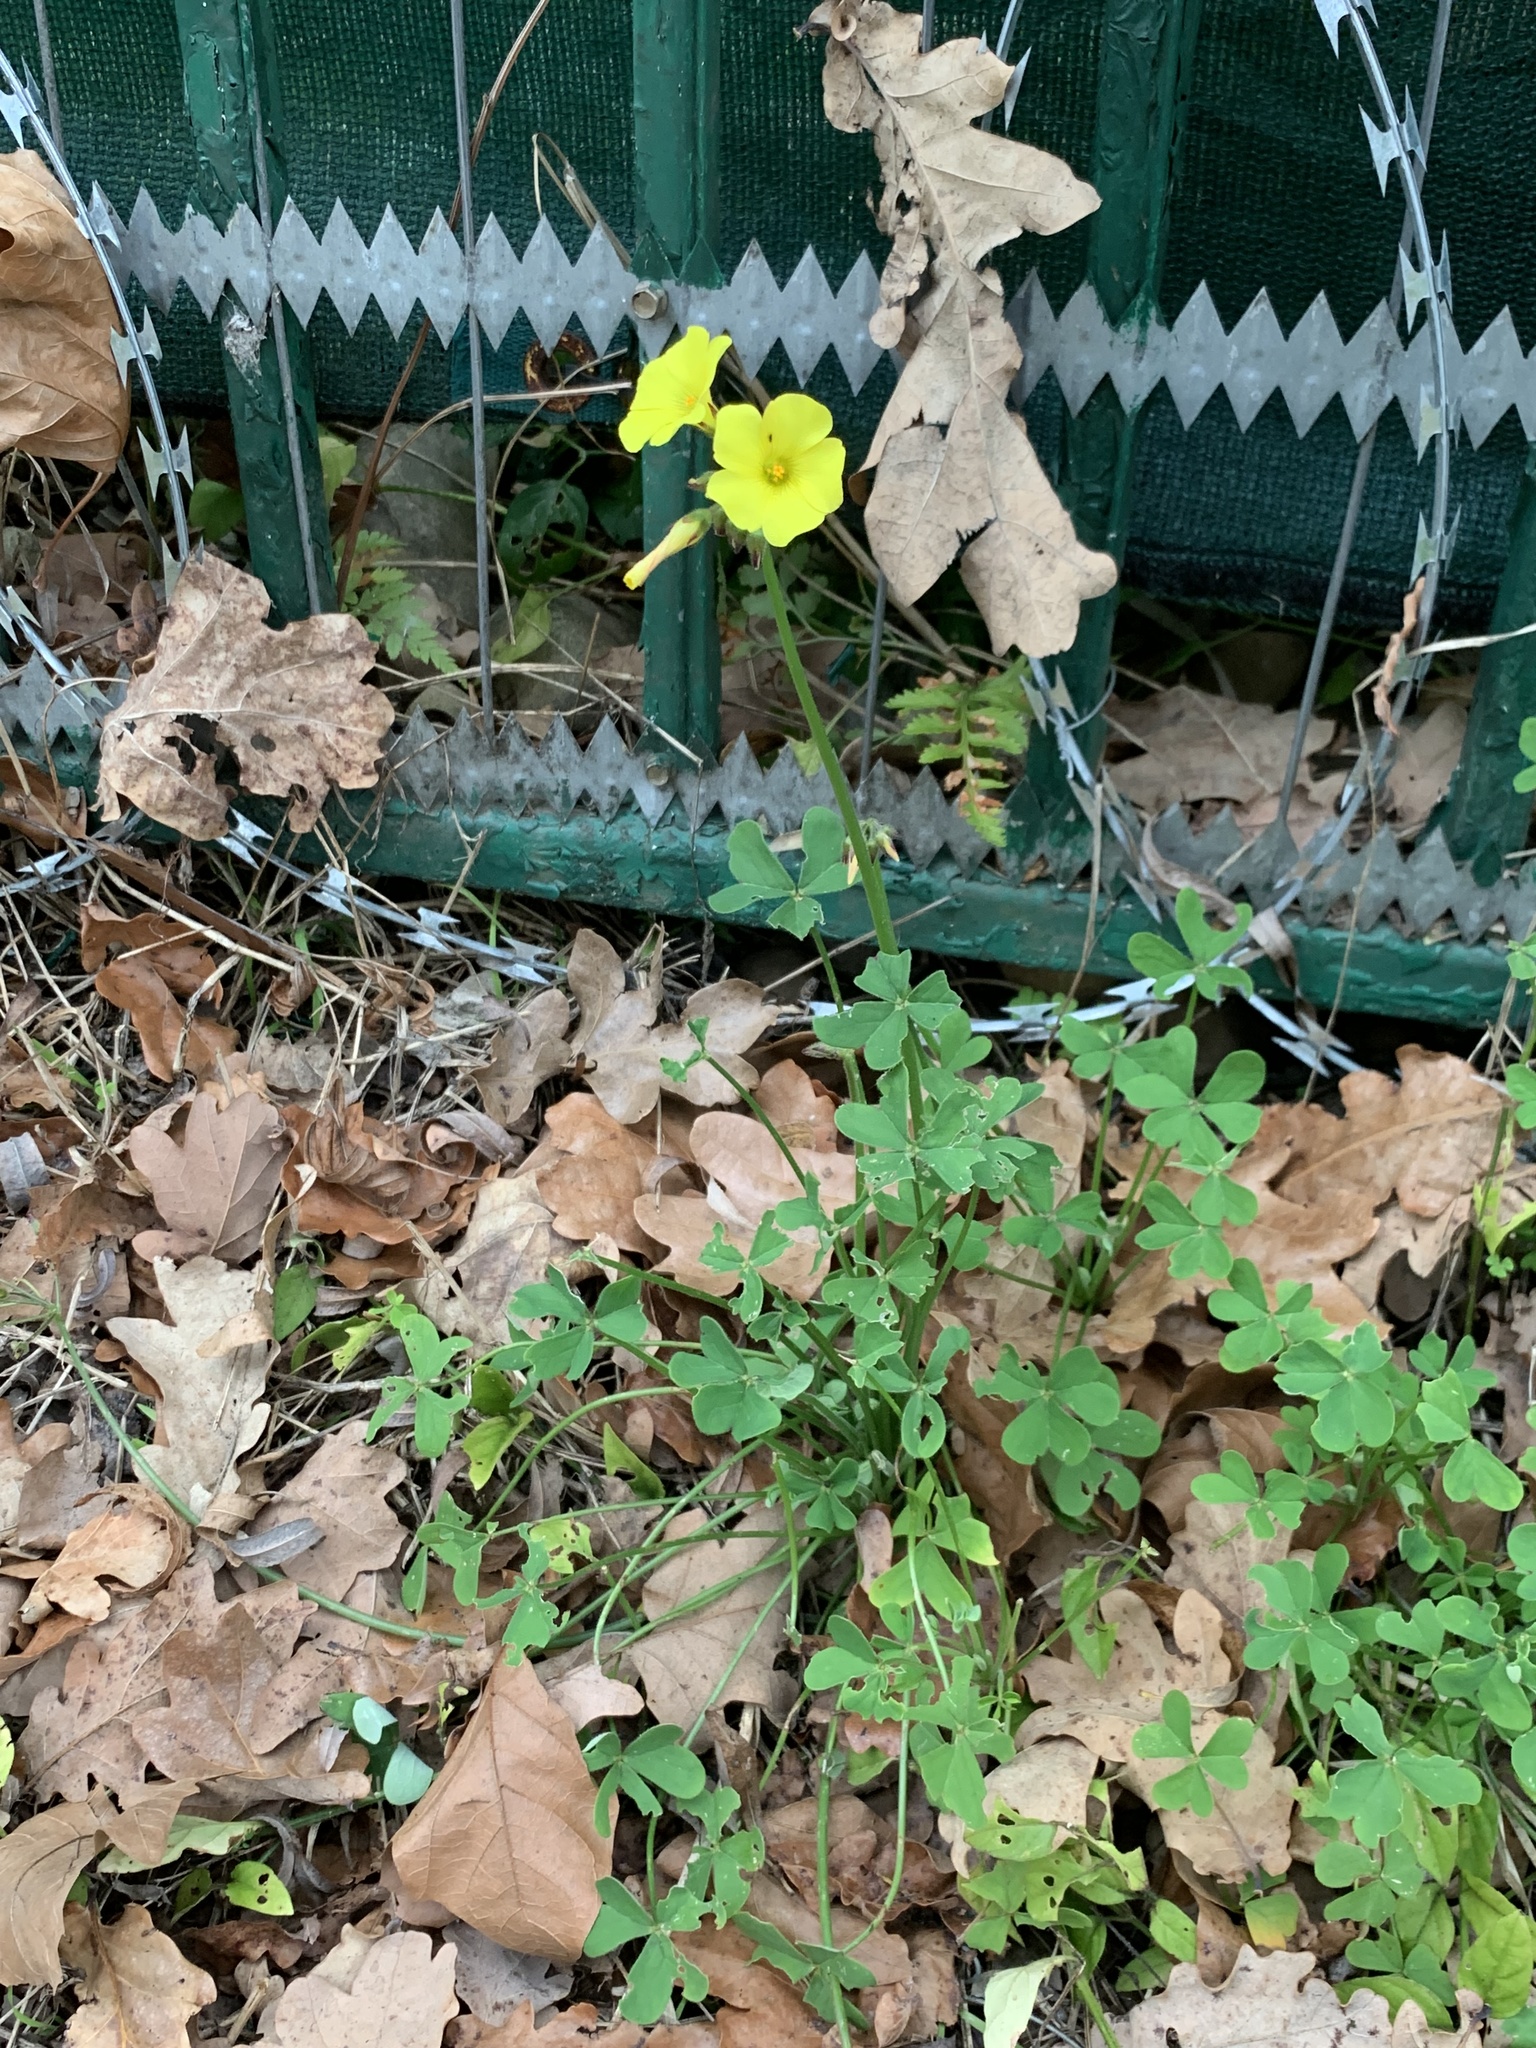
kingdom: Plantae
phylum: Tracheophyta
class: Magnoliopsida
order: Oxalidales
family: Oxalidaceae
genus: Oxalis
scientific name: Oxalis pes-caprae
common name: Bermuda-buttercup
